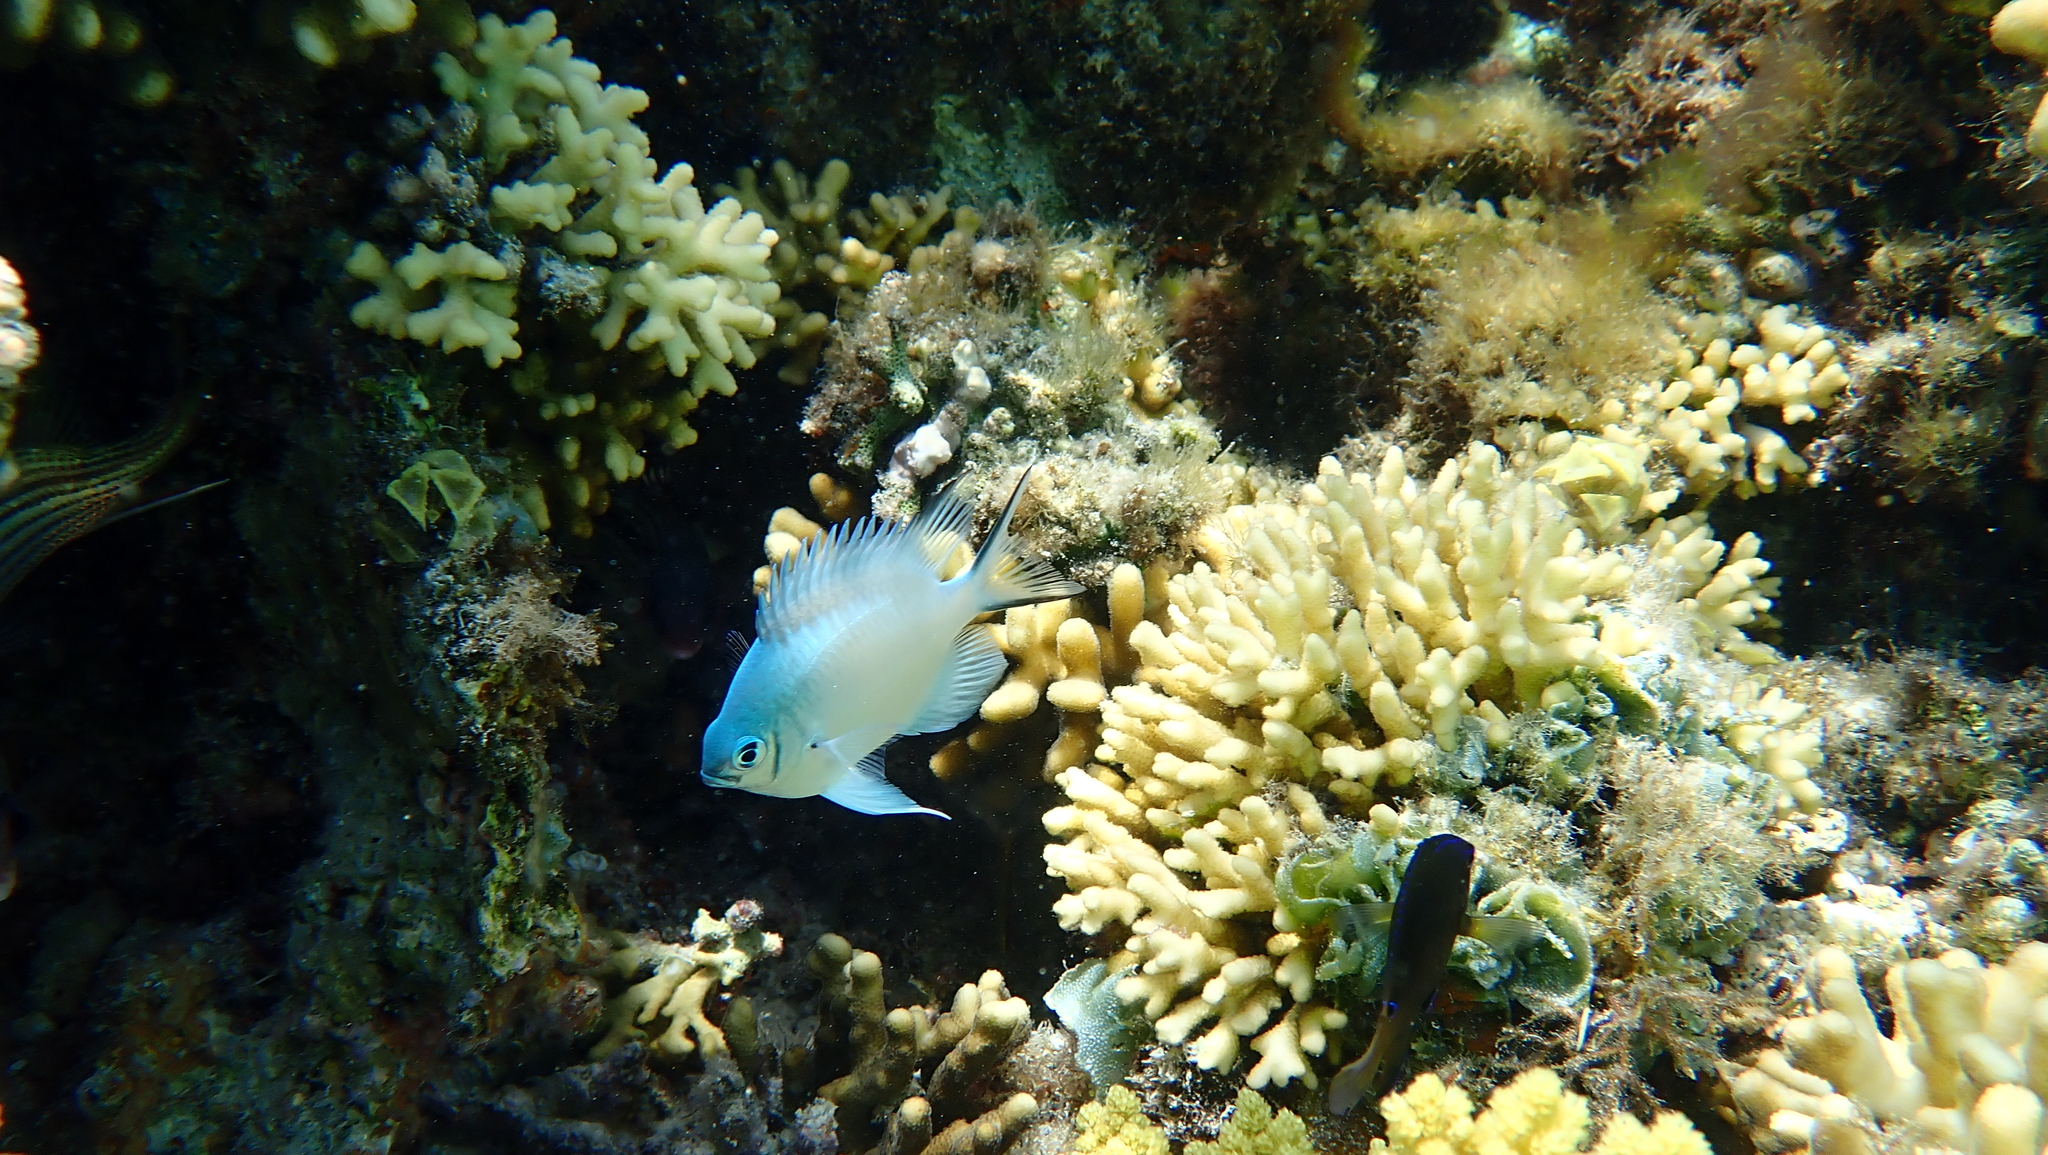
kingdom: Animalia
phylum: Chordata
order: Perciformes
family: Pomacentridae
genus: Amblyglyphidodon
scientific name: Amblyglyphidodon indicus
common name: Maldives damselfish
